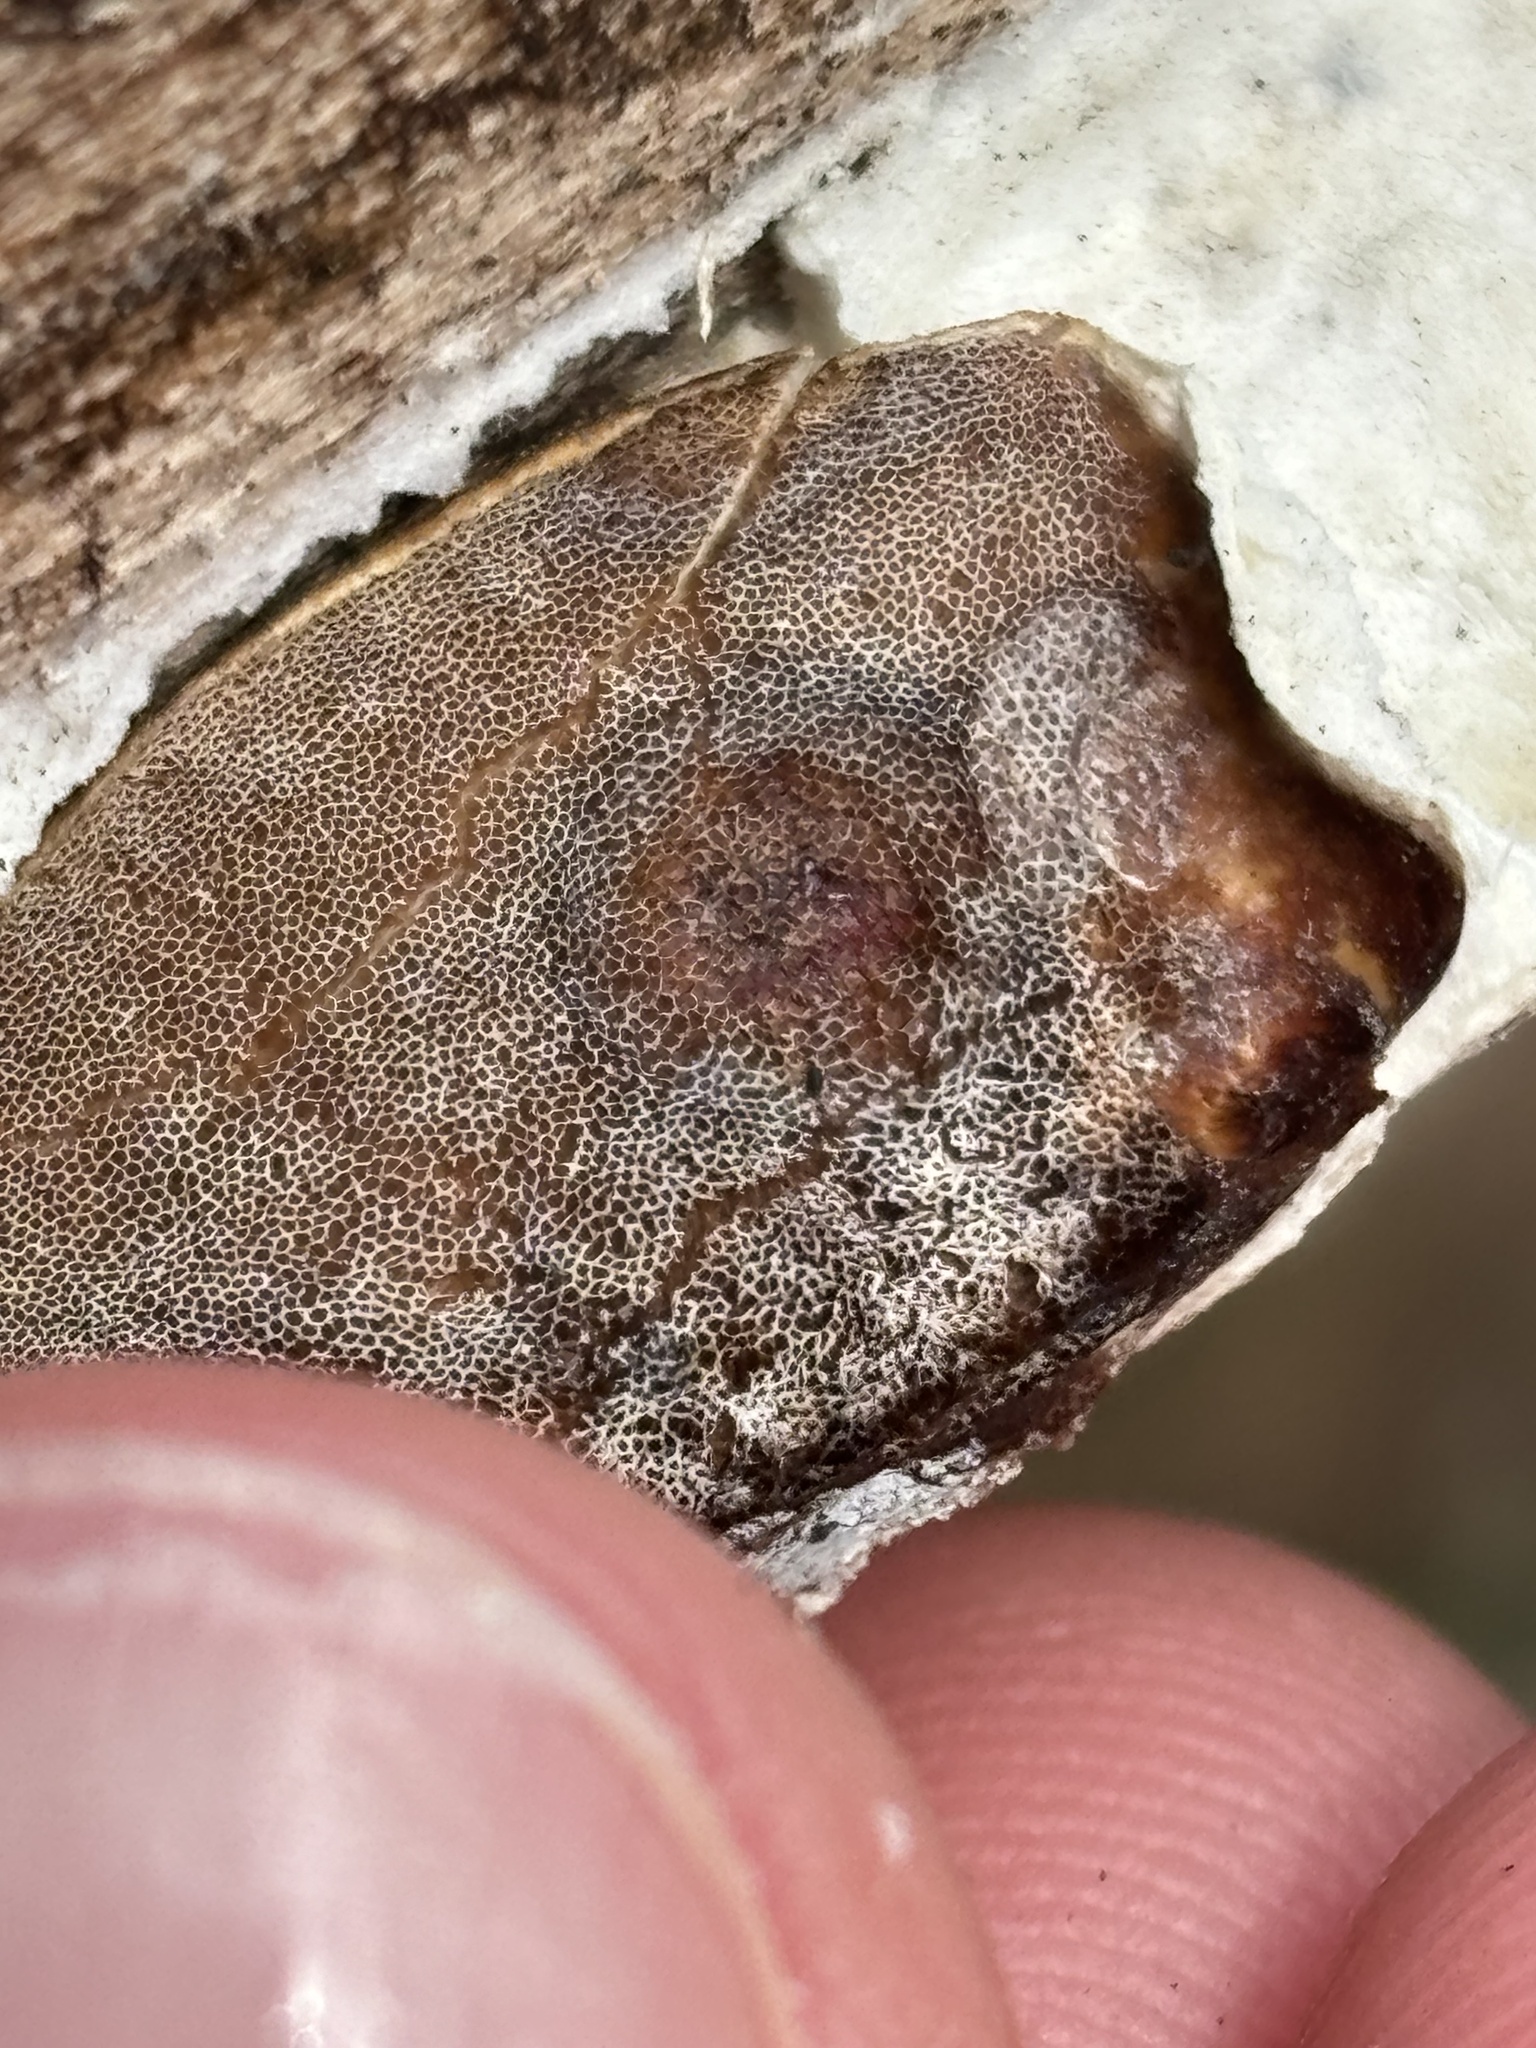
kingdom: Fungi
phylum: Basidiomycota
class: Agaricomycetes
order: Polyporales
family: Irpicaceae
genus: Vitreoporus
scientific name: Vitreoporus dichrous
